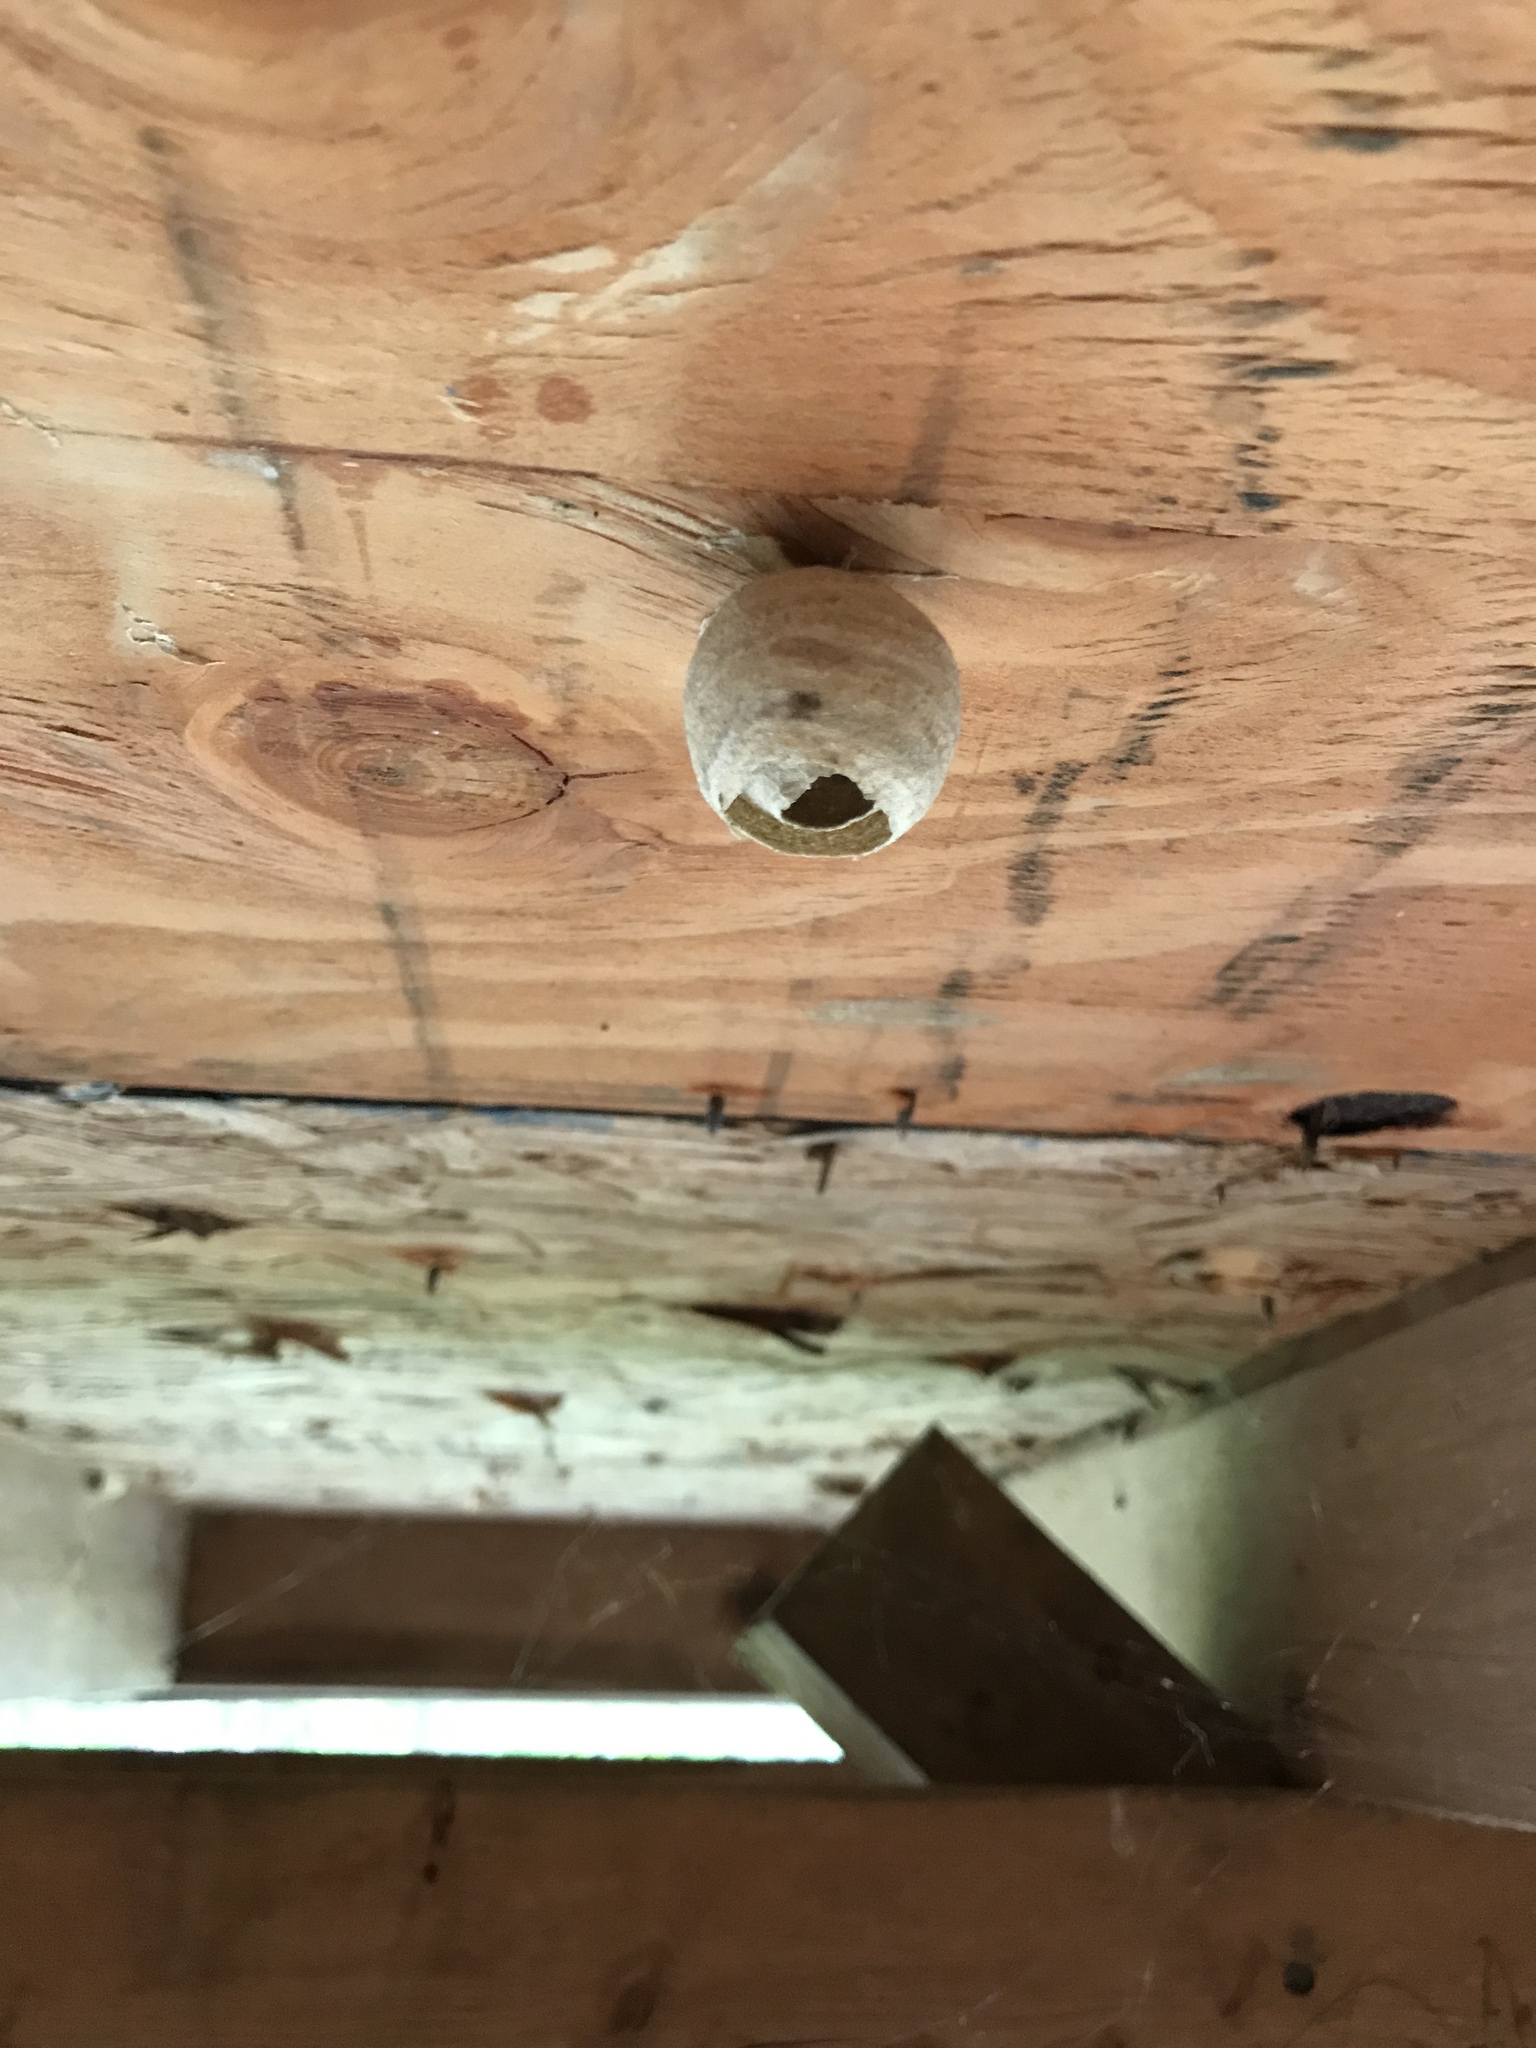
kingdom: Animalia
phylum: Arthropoda
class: Insecta
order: Hymenoptera
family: Vespidae
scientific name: Vespidae
